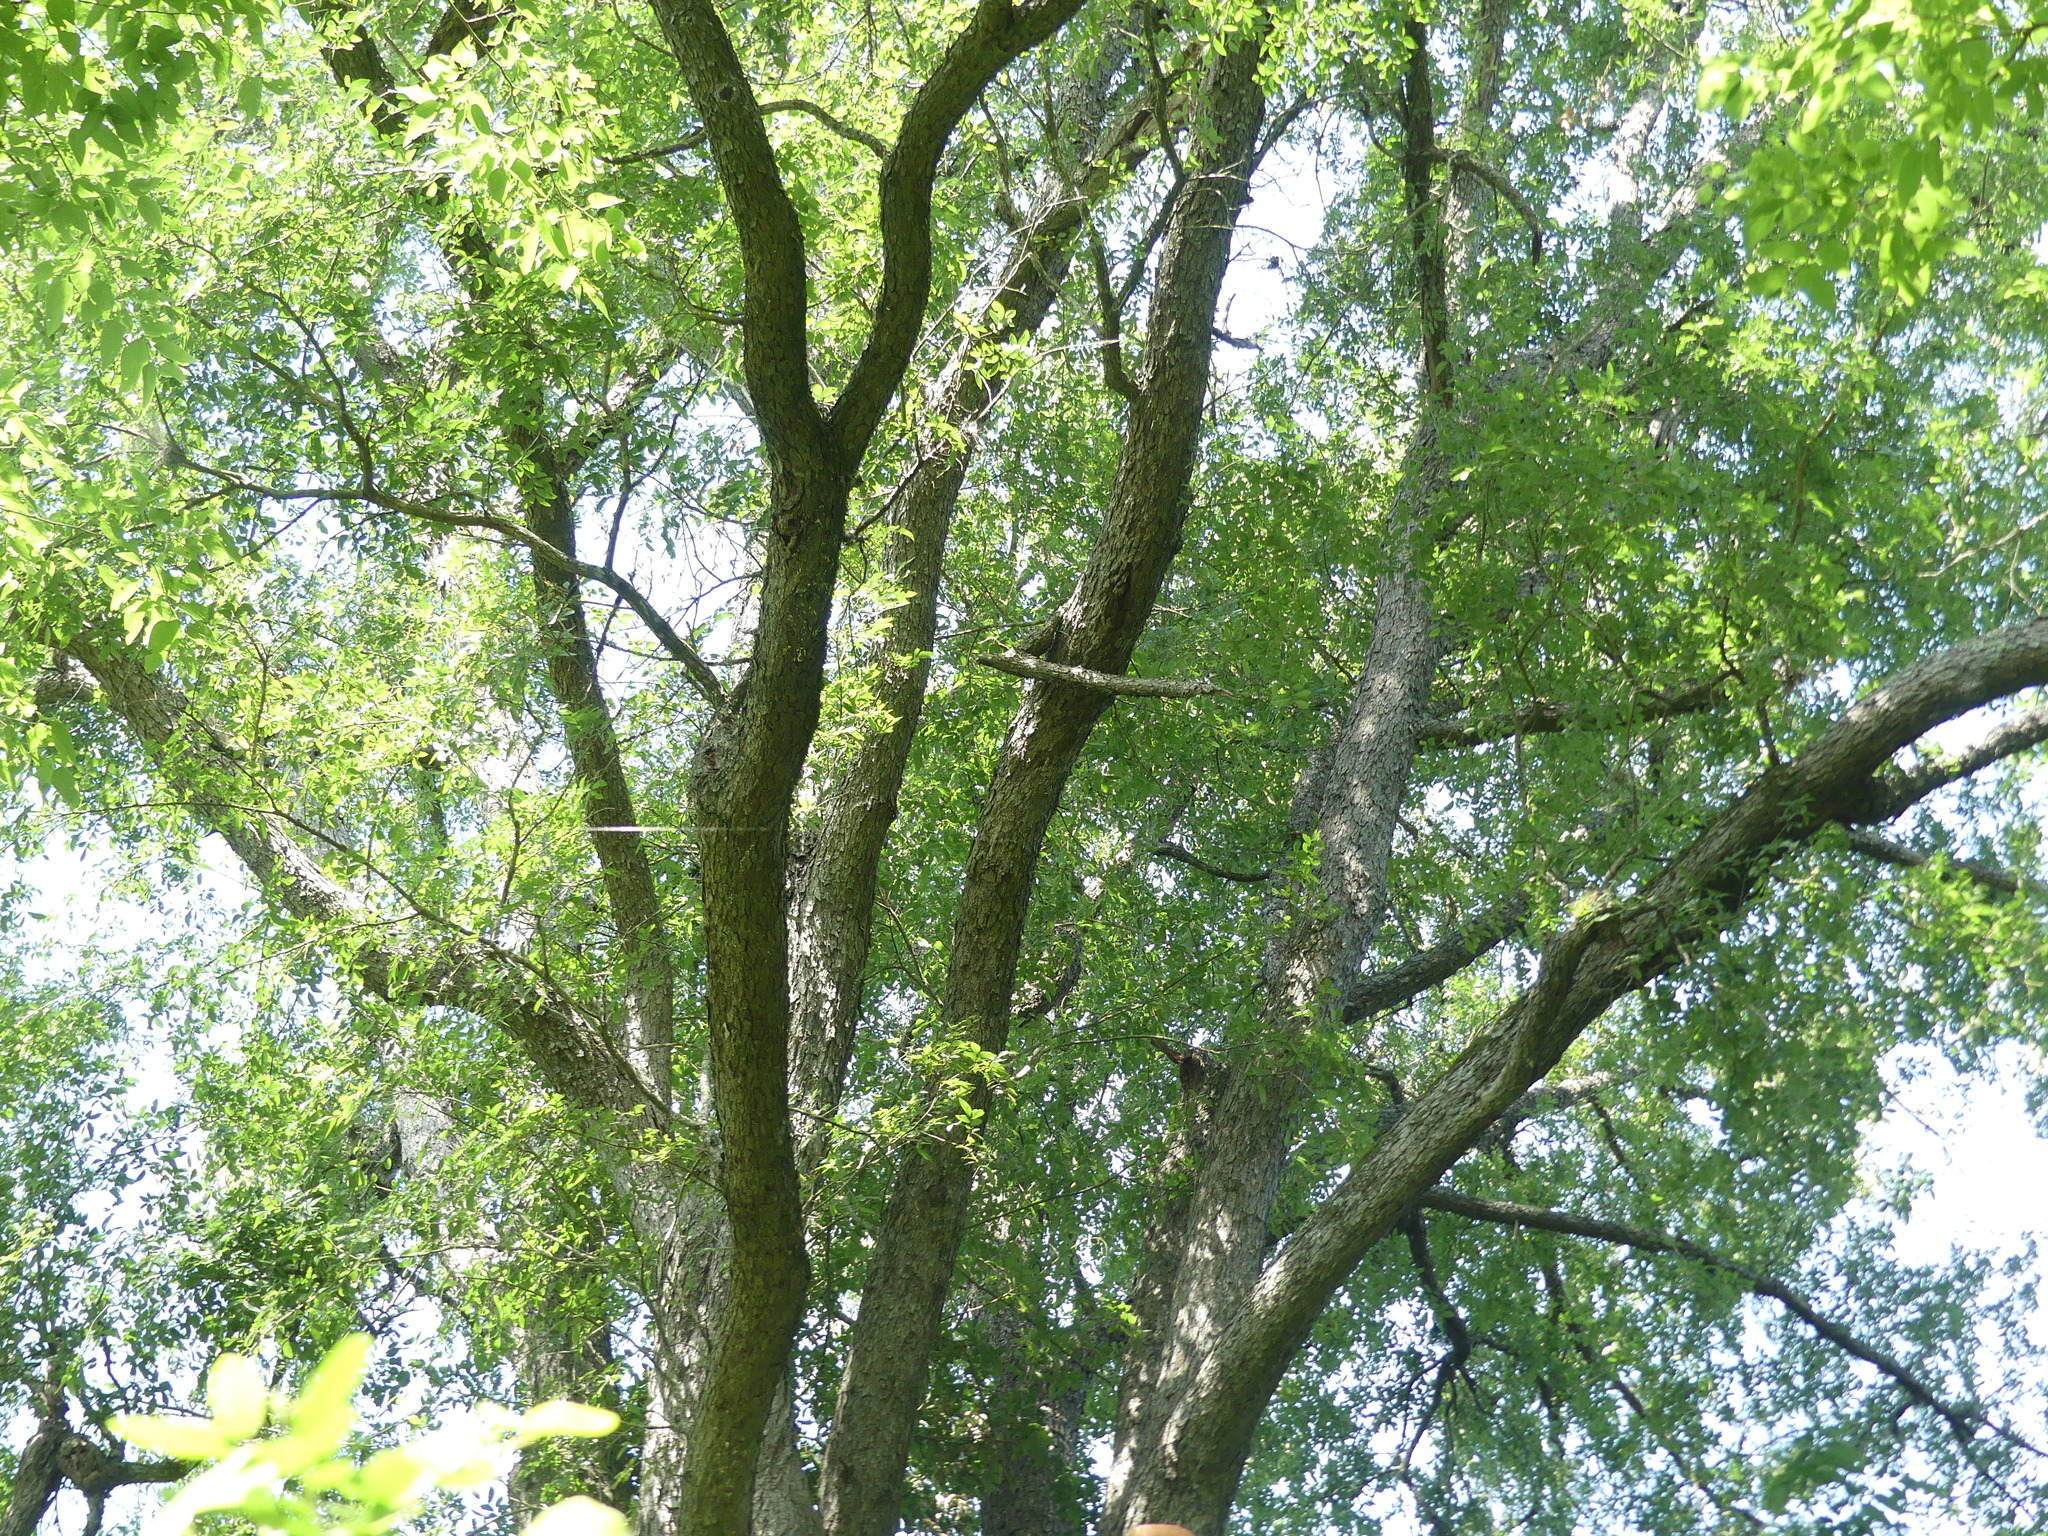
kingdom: Plantae
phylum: Tracheophyta
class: Magnoliopsida
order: Rosales
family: Ulmaceae
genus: Ulmus
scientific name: Ulmus crassifolia
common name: Basket elm
